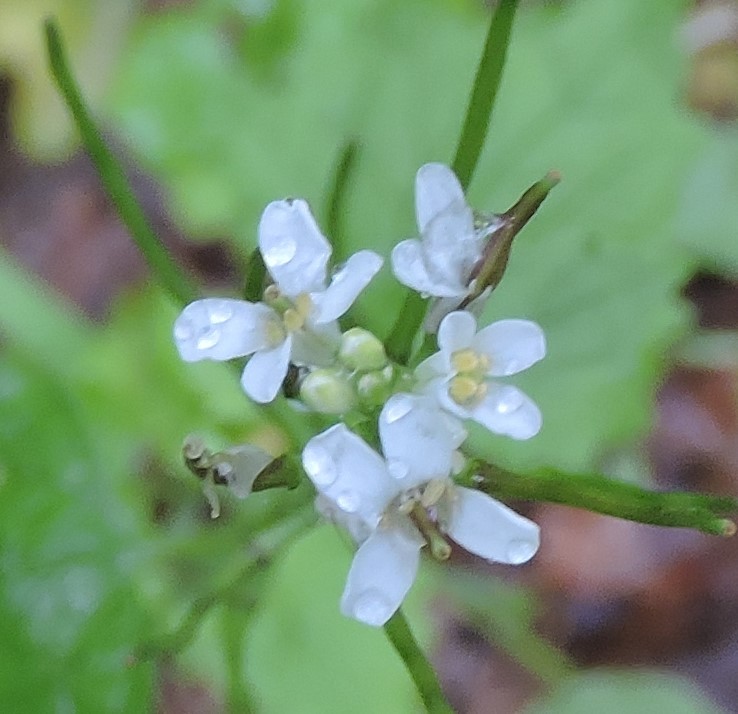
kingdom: Plantae
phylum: Tracheophyta
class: Magnoliopsida
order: Brassicales
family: Brassicaceae
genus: Alliaria
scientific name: Alliaria petiolata
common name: Garlic mustard
